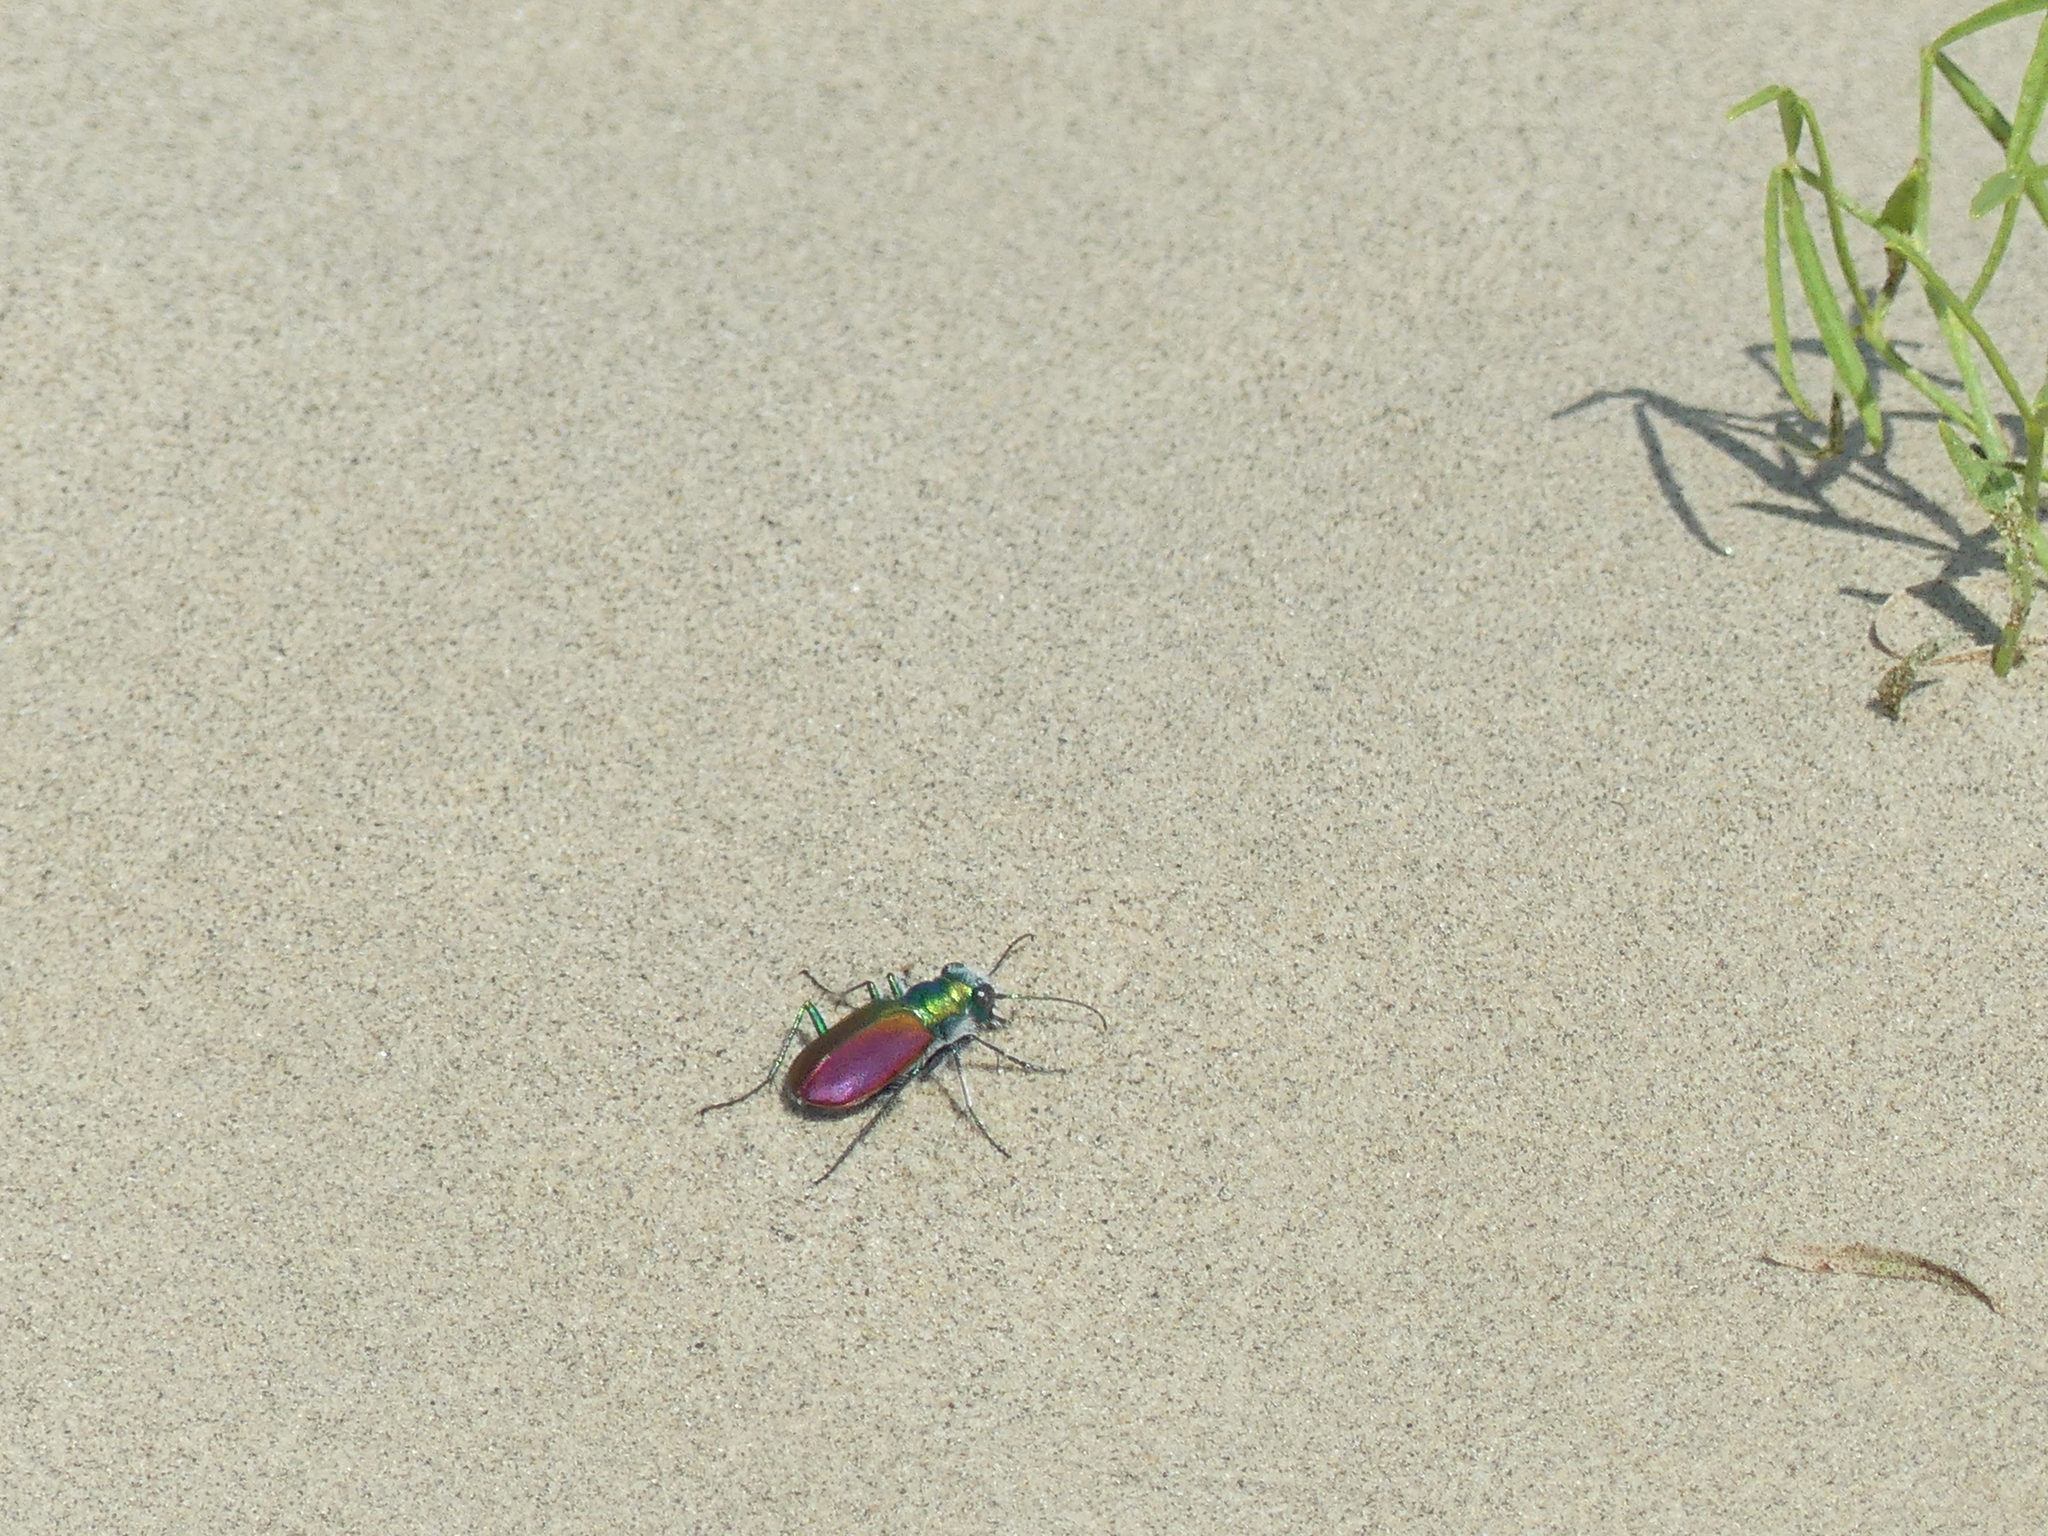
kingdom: Animalia
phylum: Arthropoda
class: Insecta
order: Coleoptera
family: Carabidae
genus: Cicindela
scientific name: Cicindela scutellaris
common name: Festive tiger beetle
